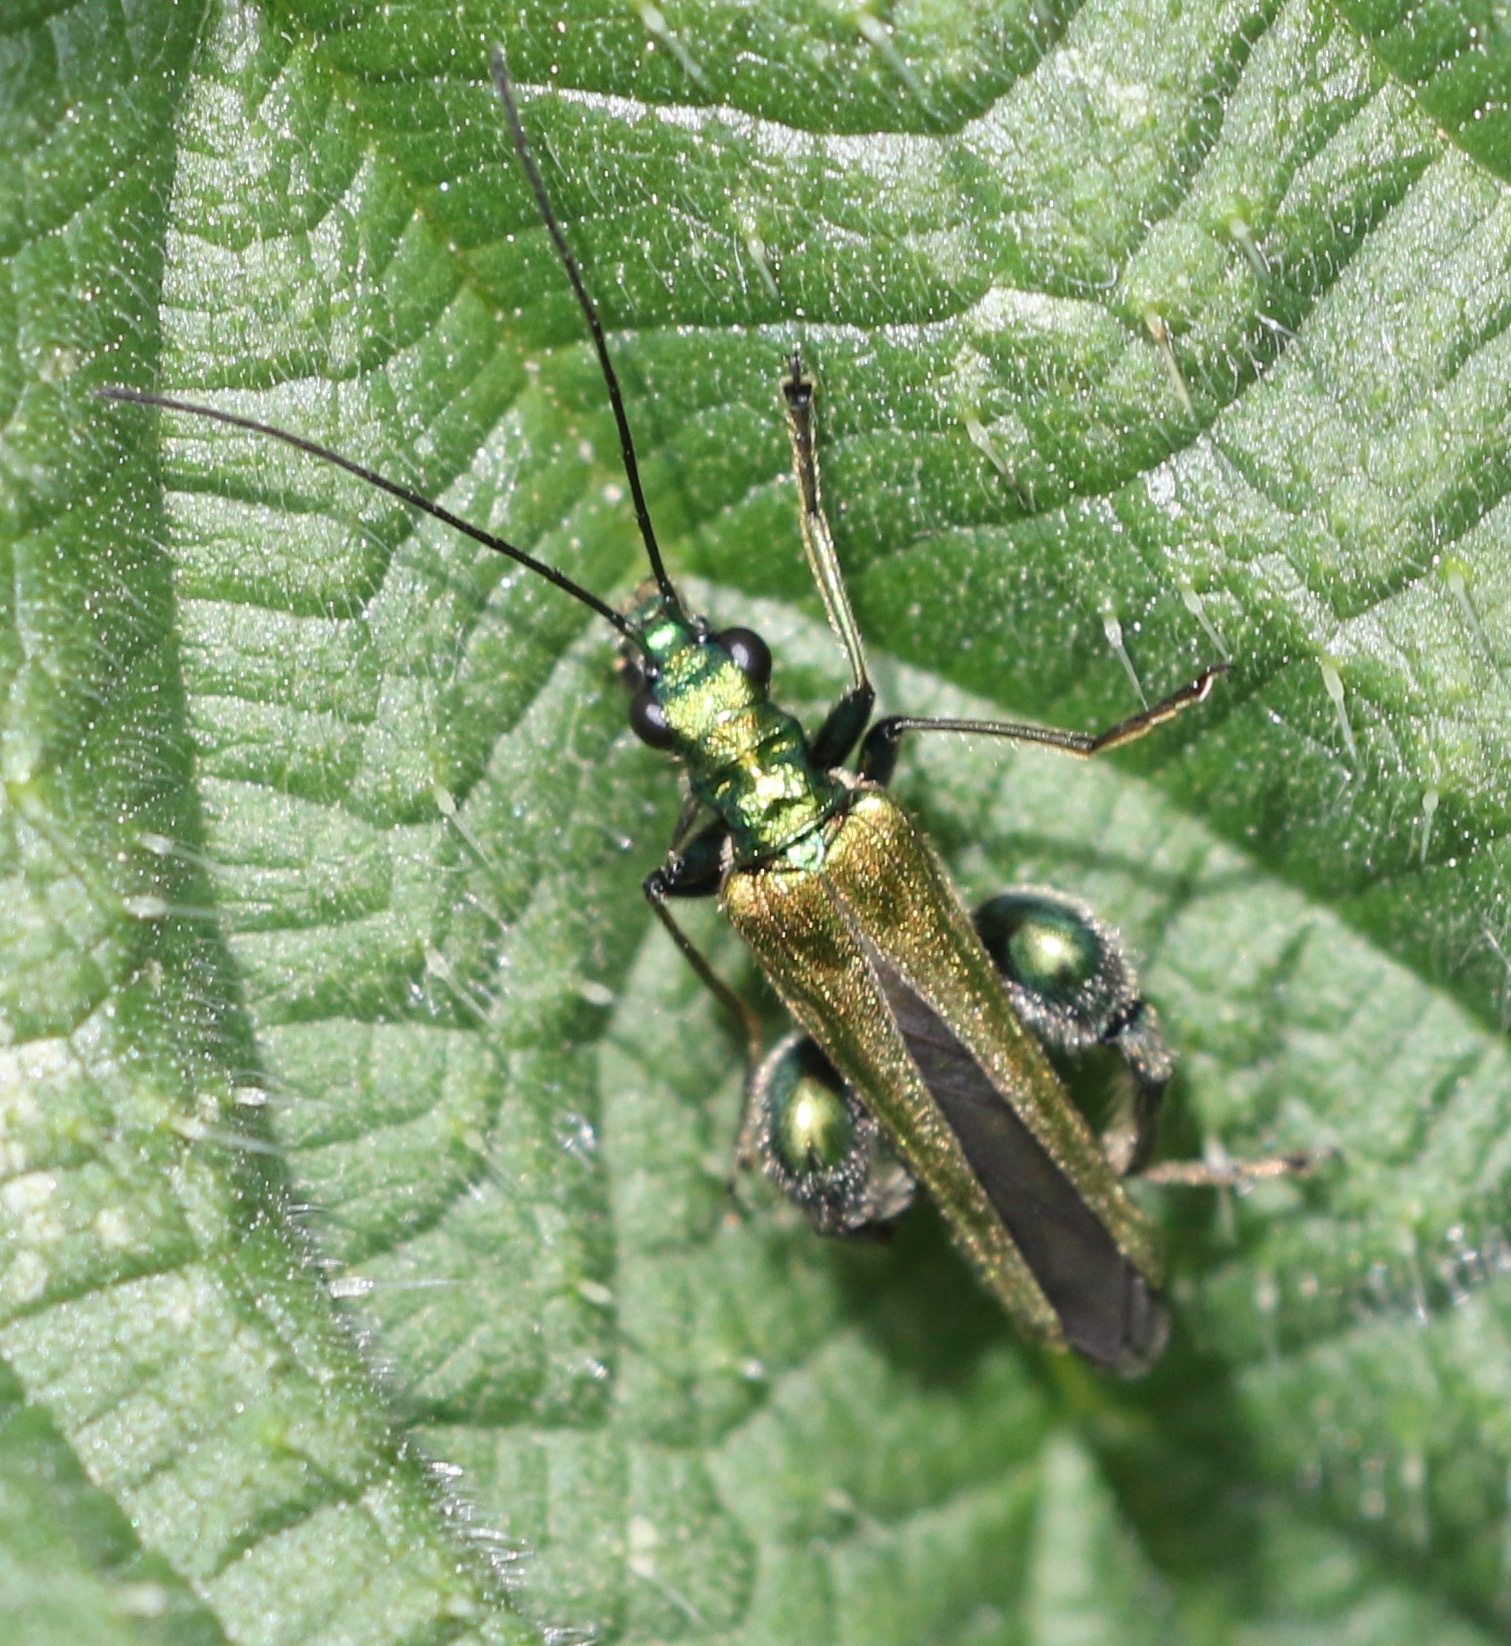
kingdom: Animalia
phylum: Arthropoda
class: Insecta
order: Coleoptera
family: Oedemeridae
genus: Oedemera
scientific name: Oedemera nobilis
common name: Swollen-thighed beetle
